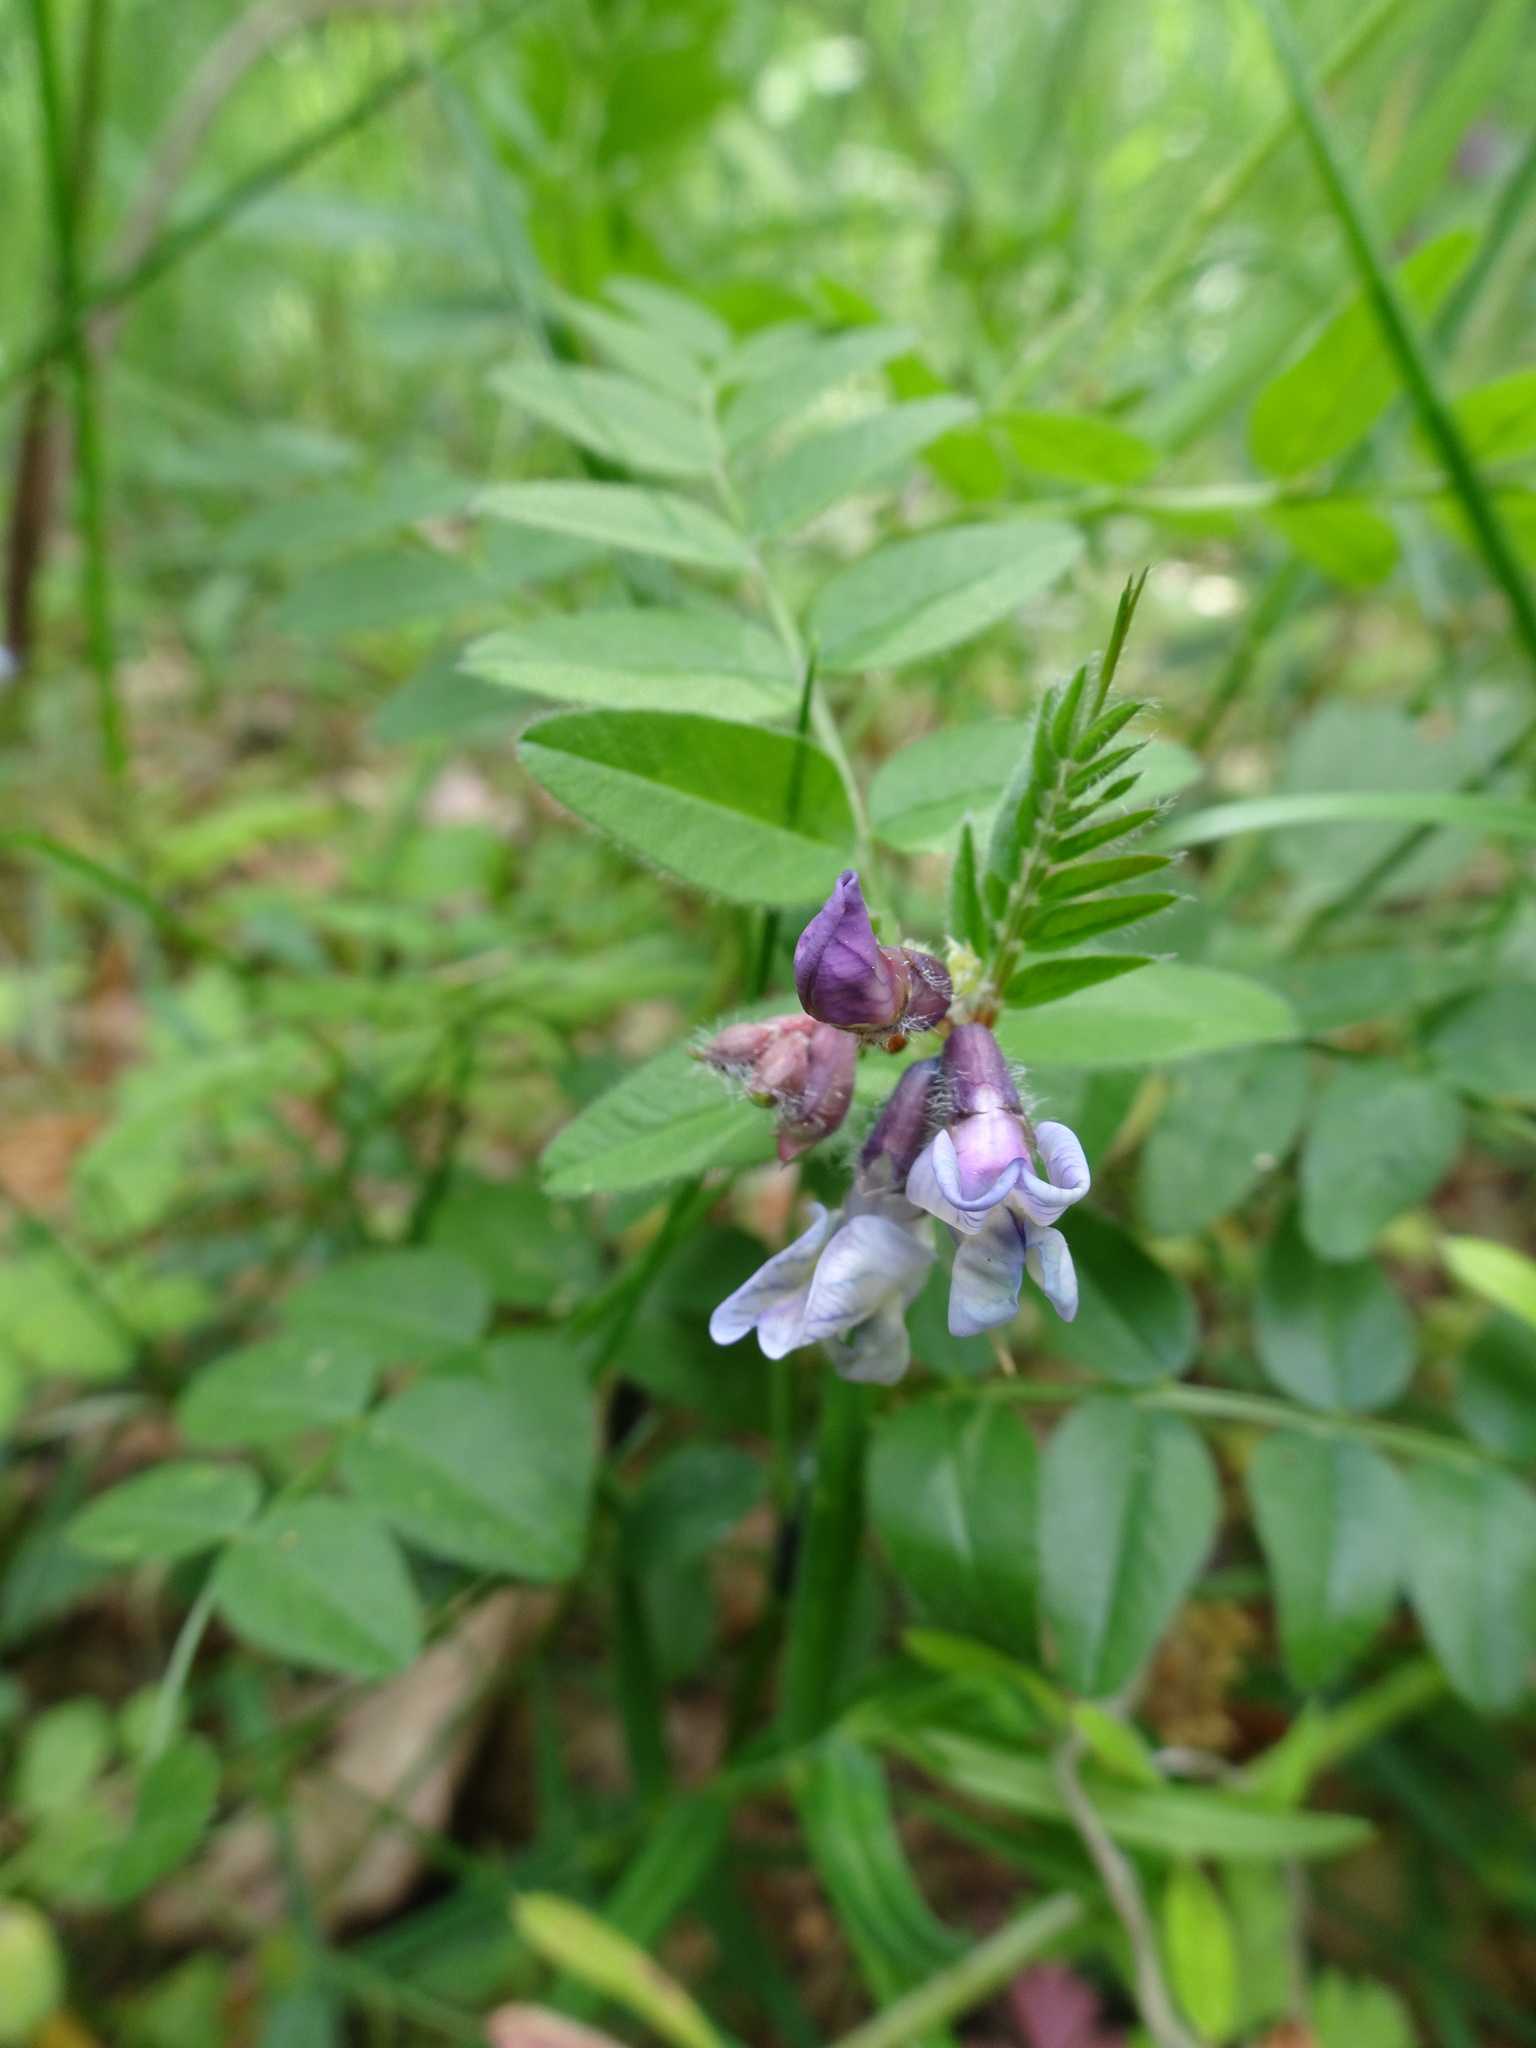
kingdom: Plantae
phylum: Tracheophyta
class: Magnoliopsida
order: Fabales
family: Fabaceae
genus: Vicia
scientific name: Vicia sepium
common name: Bush vetch
